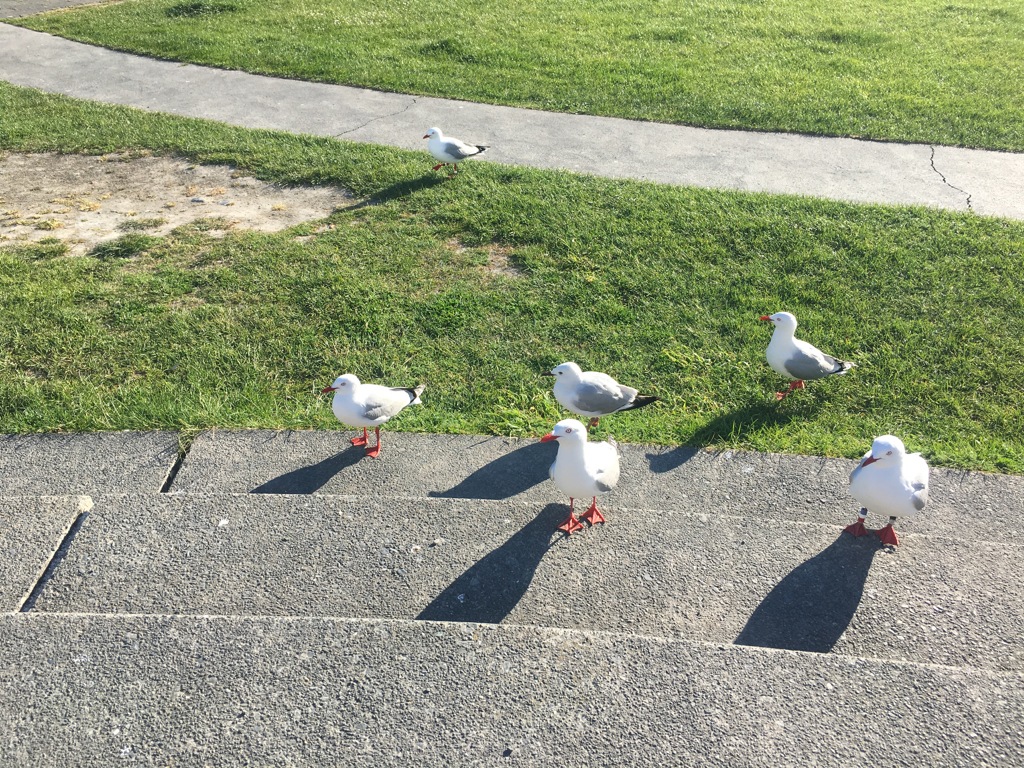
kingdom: Animalia
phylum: Chordata
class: Aves
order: Charadriiformes
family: Laridae
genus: Chroicocephalus
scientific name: Chroicocephalus novaehollandiae
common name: Silver gull
